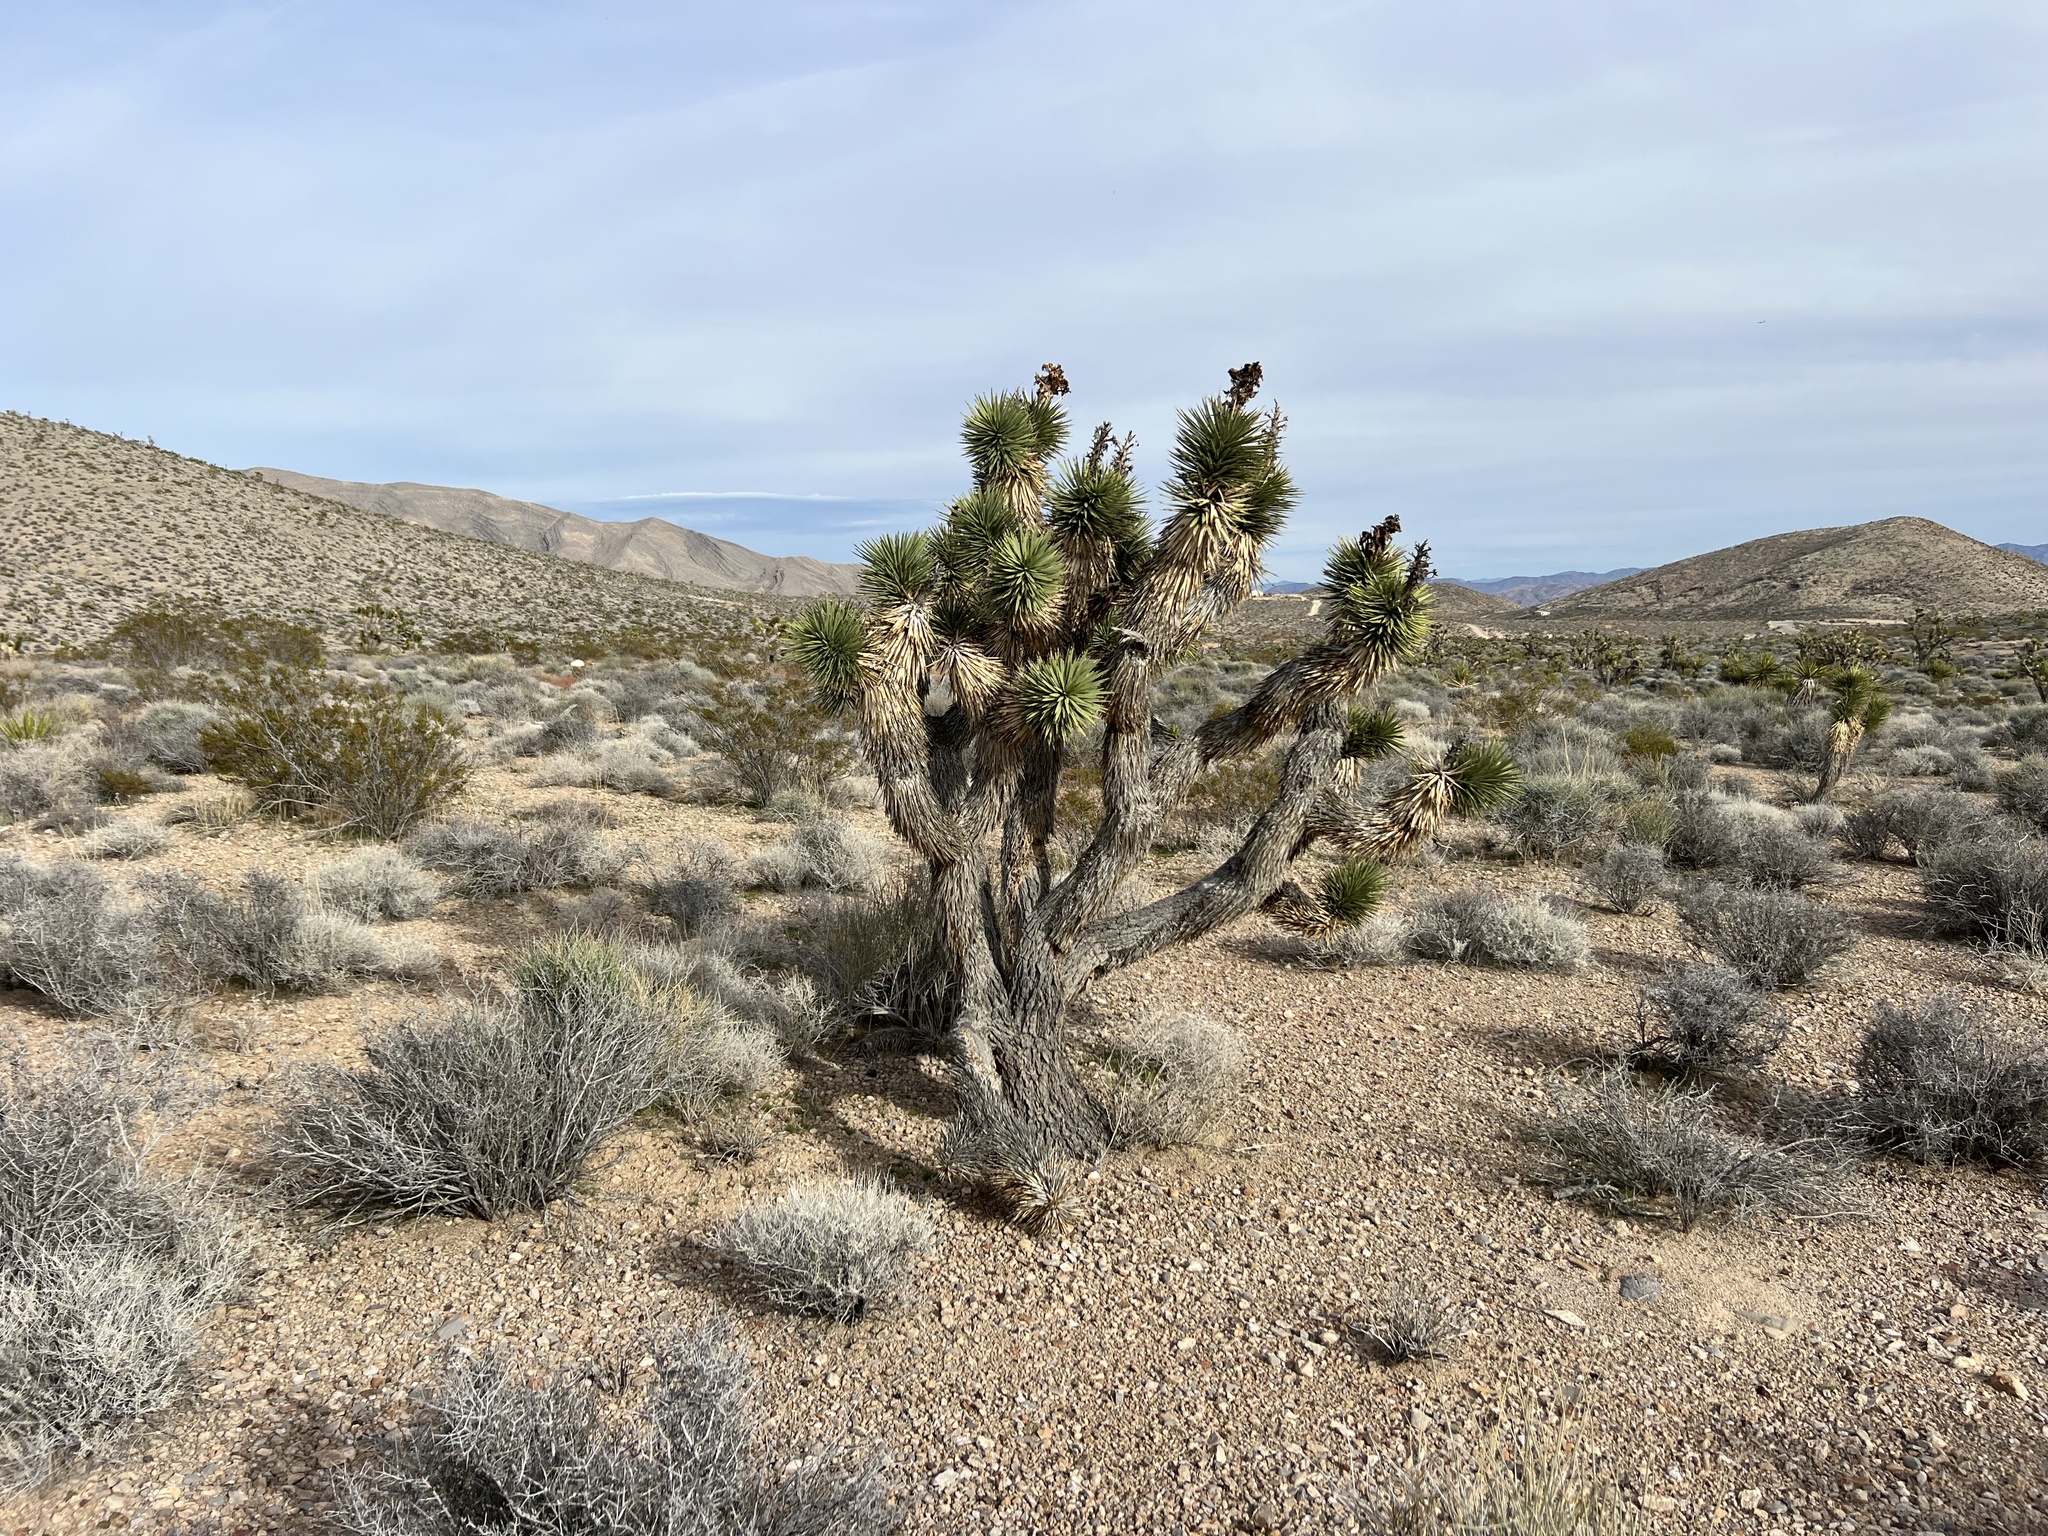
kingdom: Plantae
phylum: Tracheophyta
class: Liliopsida
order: Asparagales
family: Asparagaceae
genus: Yucca
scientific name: Yucca brevifolia
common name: Joshua tree
